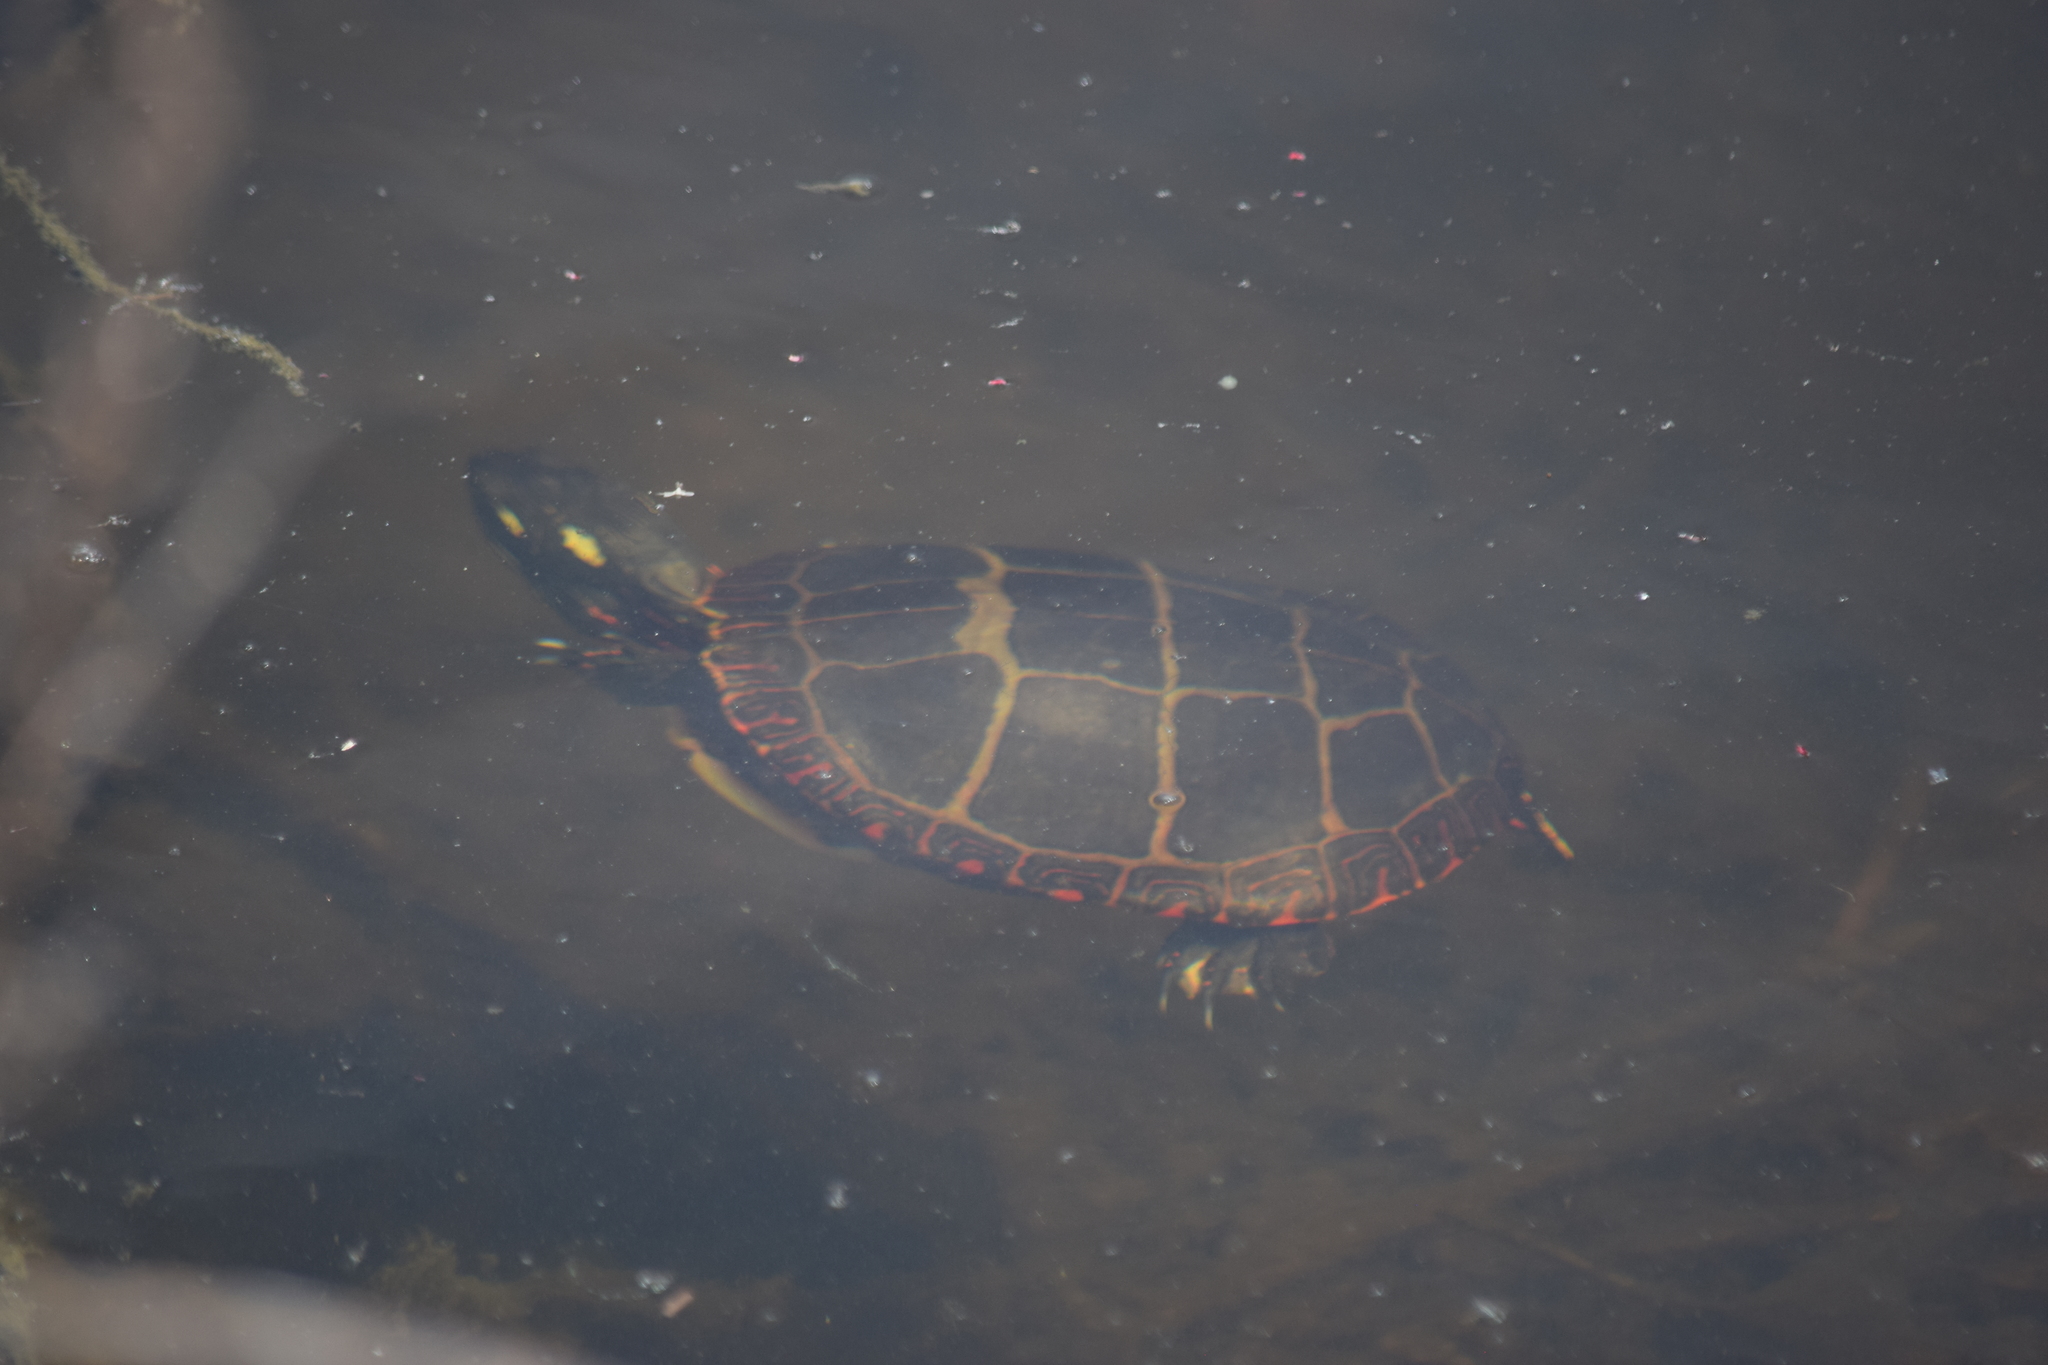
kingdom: Animalia
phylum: Chordata
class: Testudines
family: Emydidae
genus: Chrysemys
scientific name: Chrysemys picta
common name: Painted turtle
